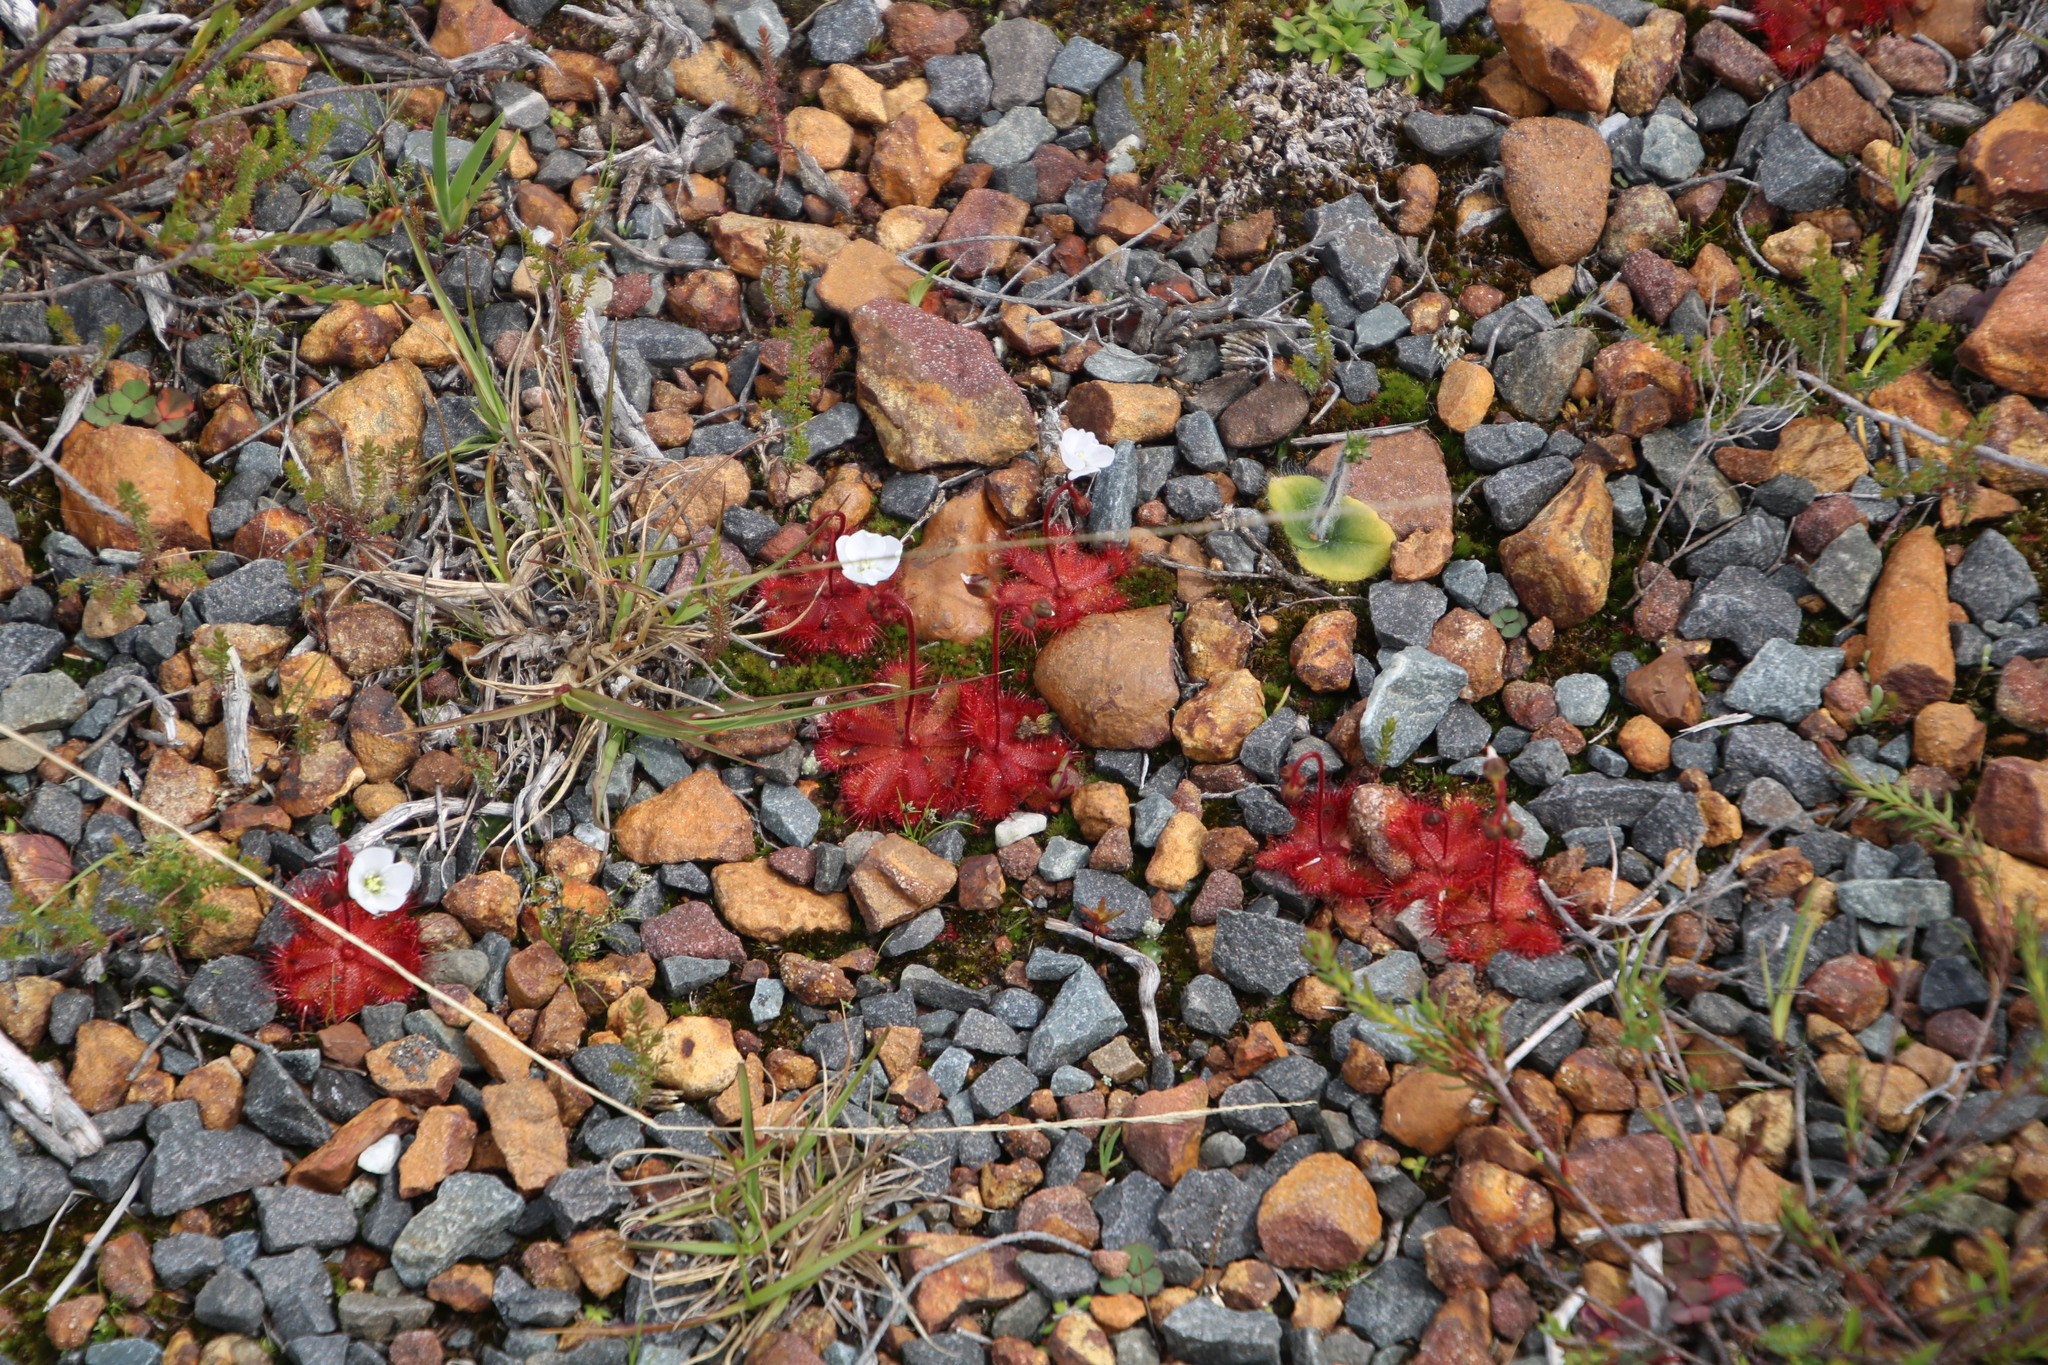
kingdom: Plantae
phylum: Tracheophyta
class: Magnoliopsida
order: Caryophyllales
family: Droseraceae
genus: Drosera
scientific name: Drosera trinervia
